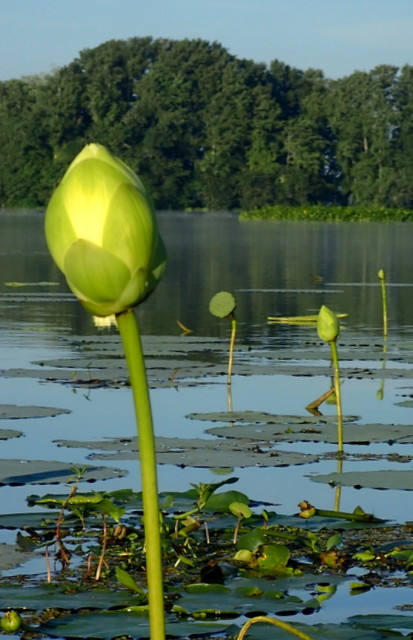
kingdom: Plantae
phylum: Tracheophyta
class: Magnoliopsida
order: Proteales
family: Nelumbonaceae
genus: Nelumbo
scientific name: Nelumbo lutea
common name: American lotus
